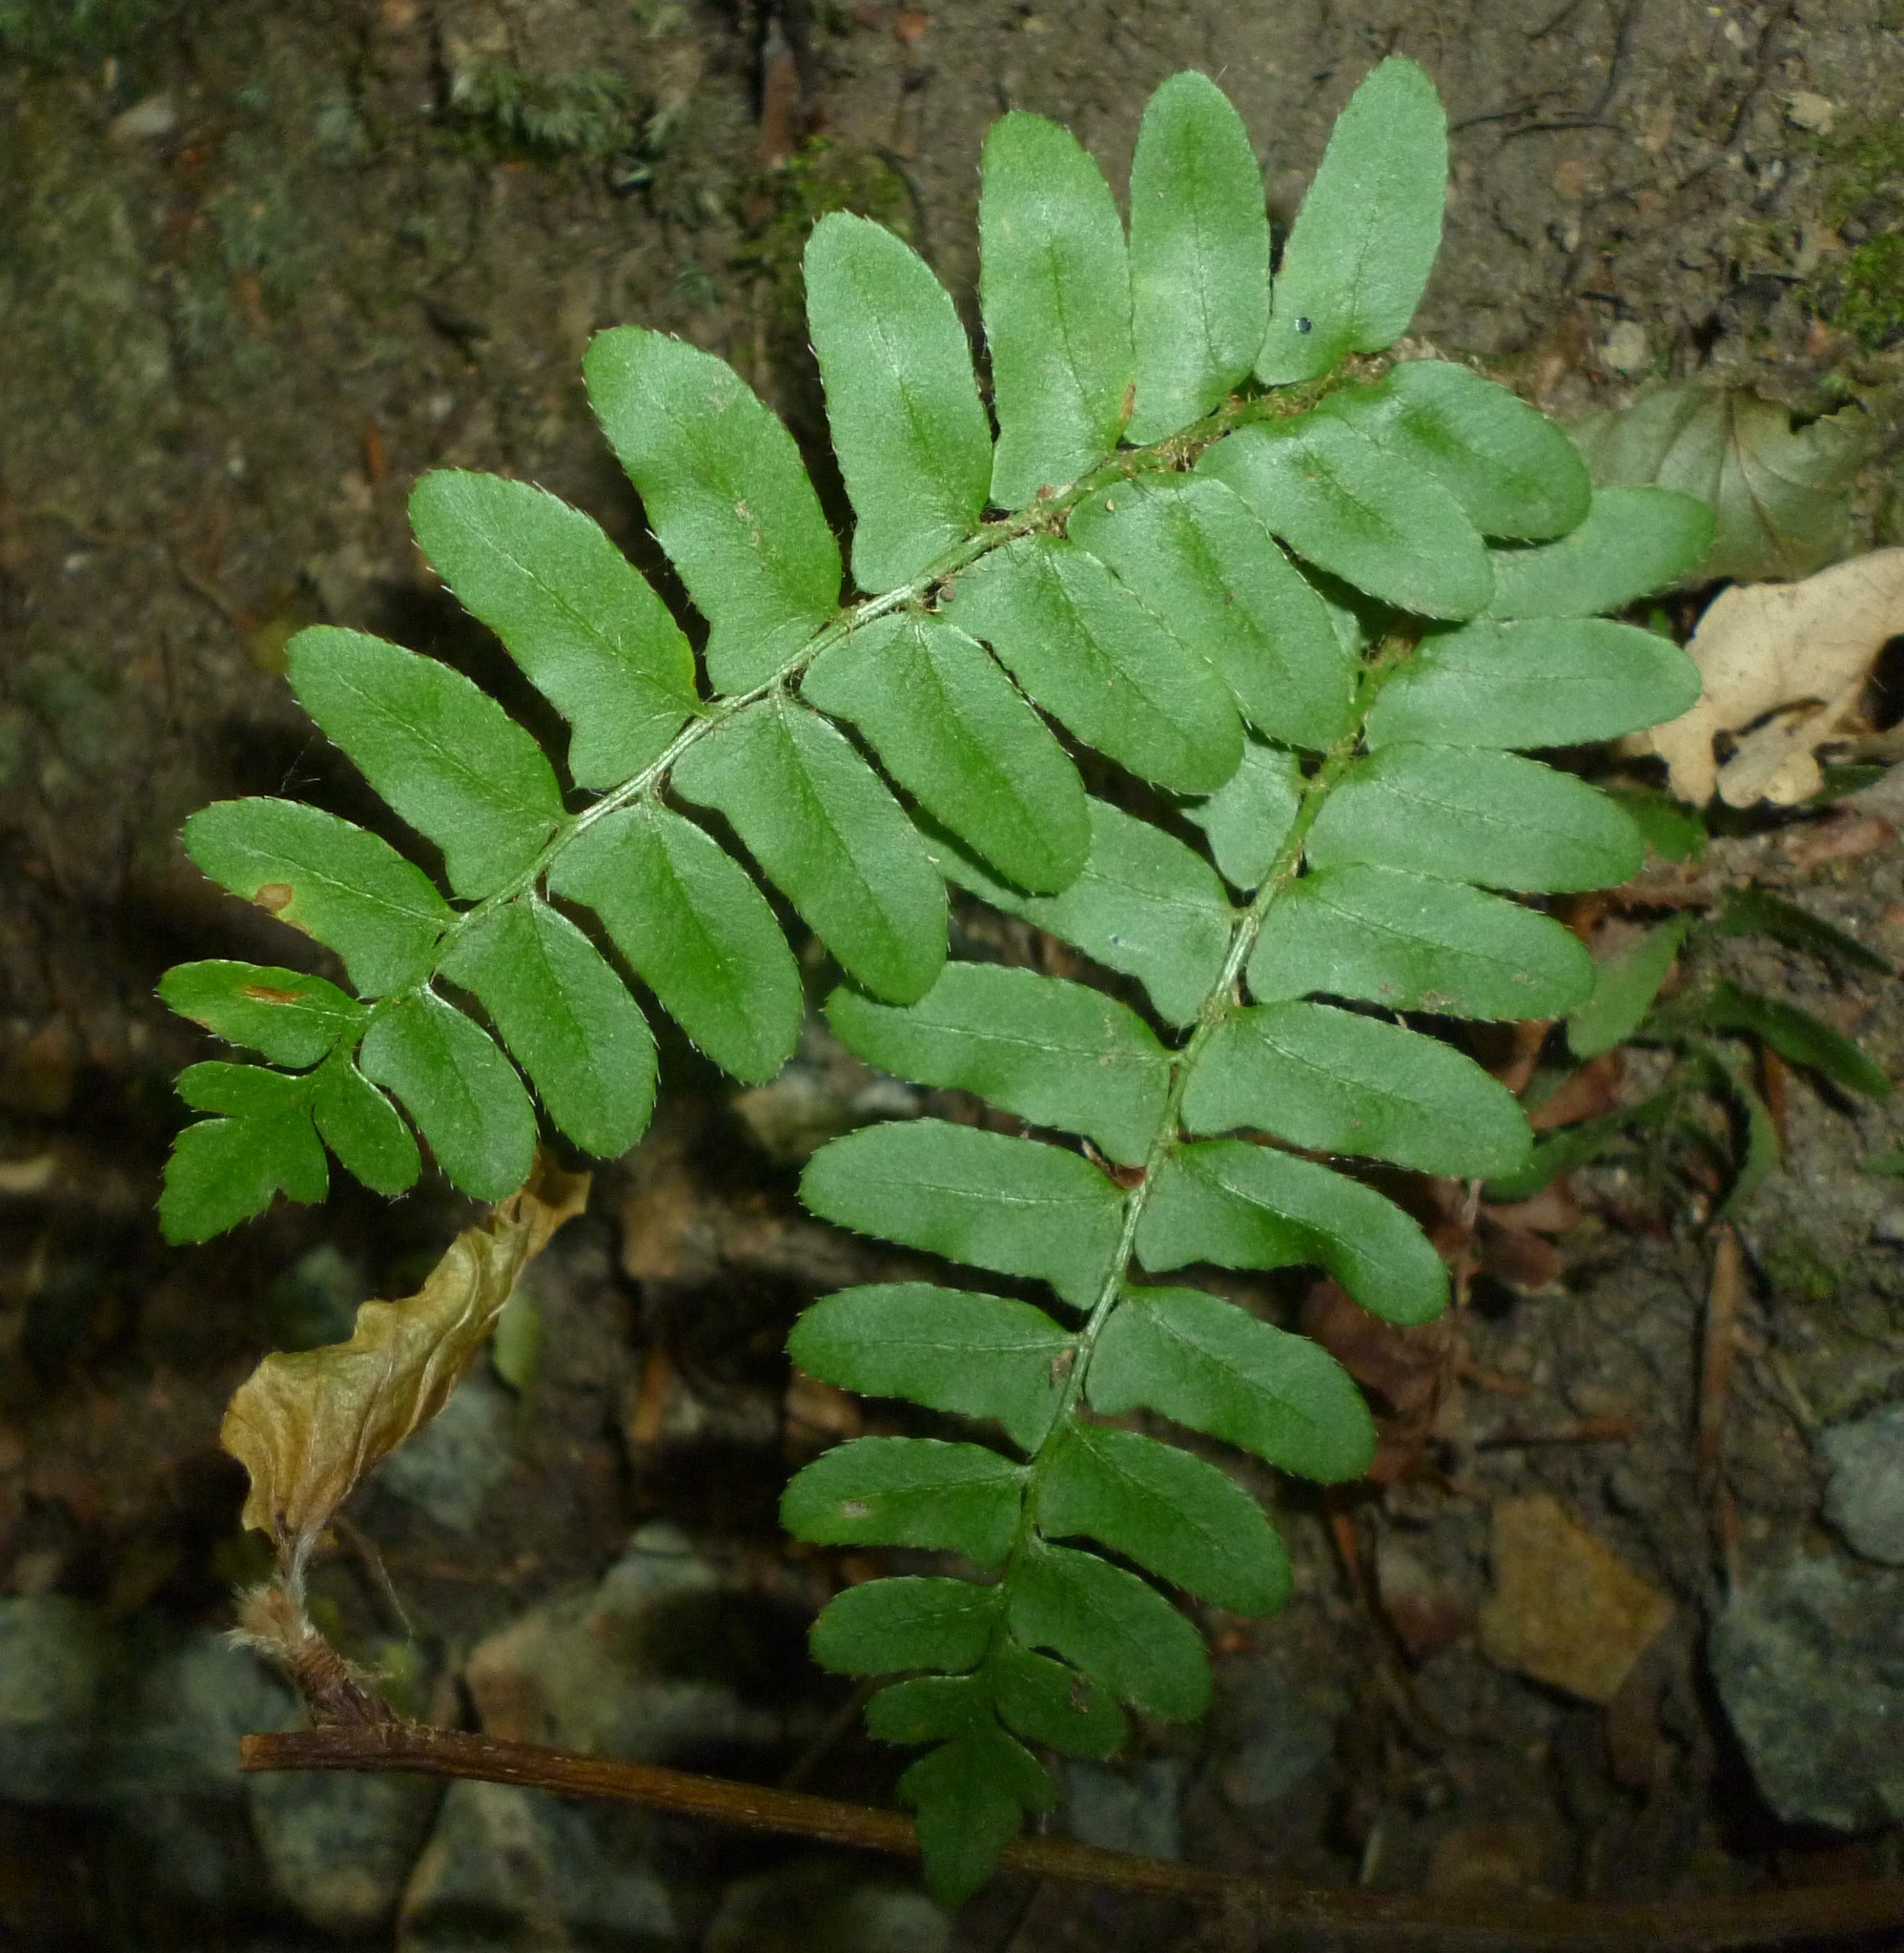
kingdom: Plantae
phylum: Tracheophyta
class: Polypodiopsida
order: Polypodiales
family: Dryopteridaceae
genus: Polystichum
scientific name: Polystichum acrostichoides
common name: Christmas fern
